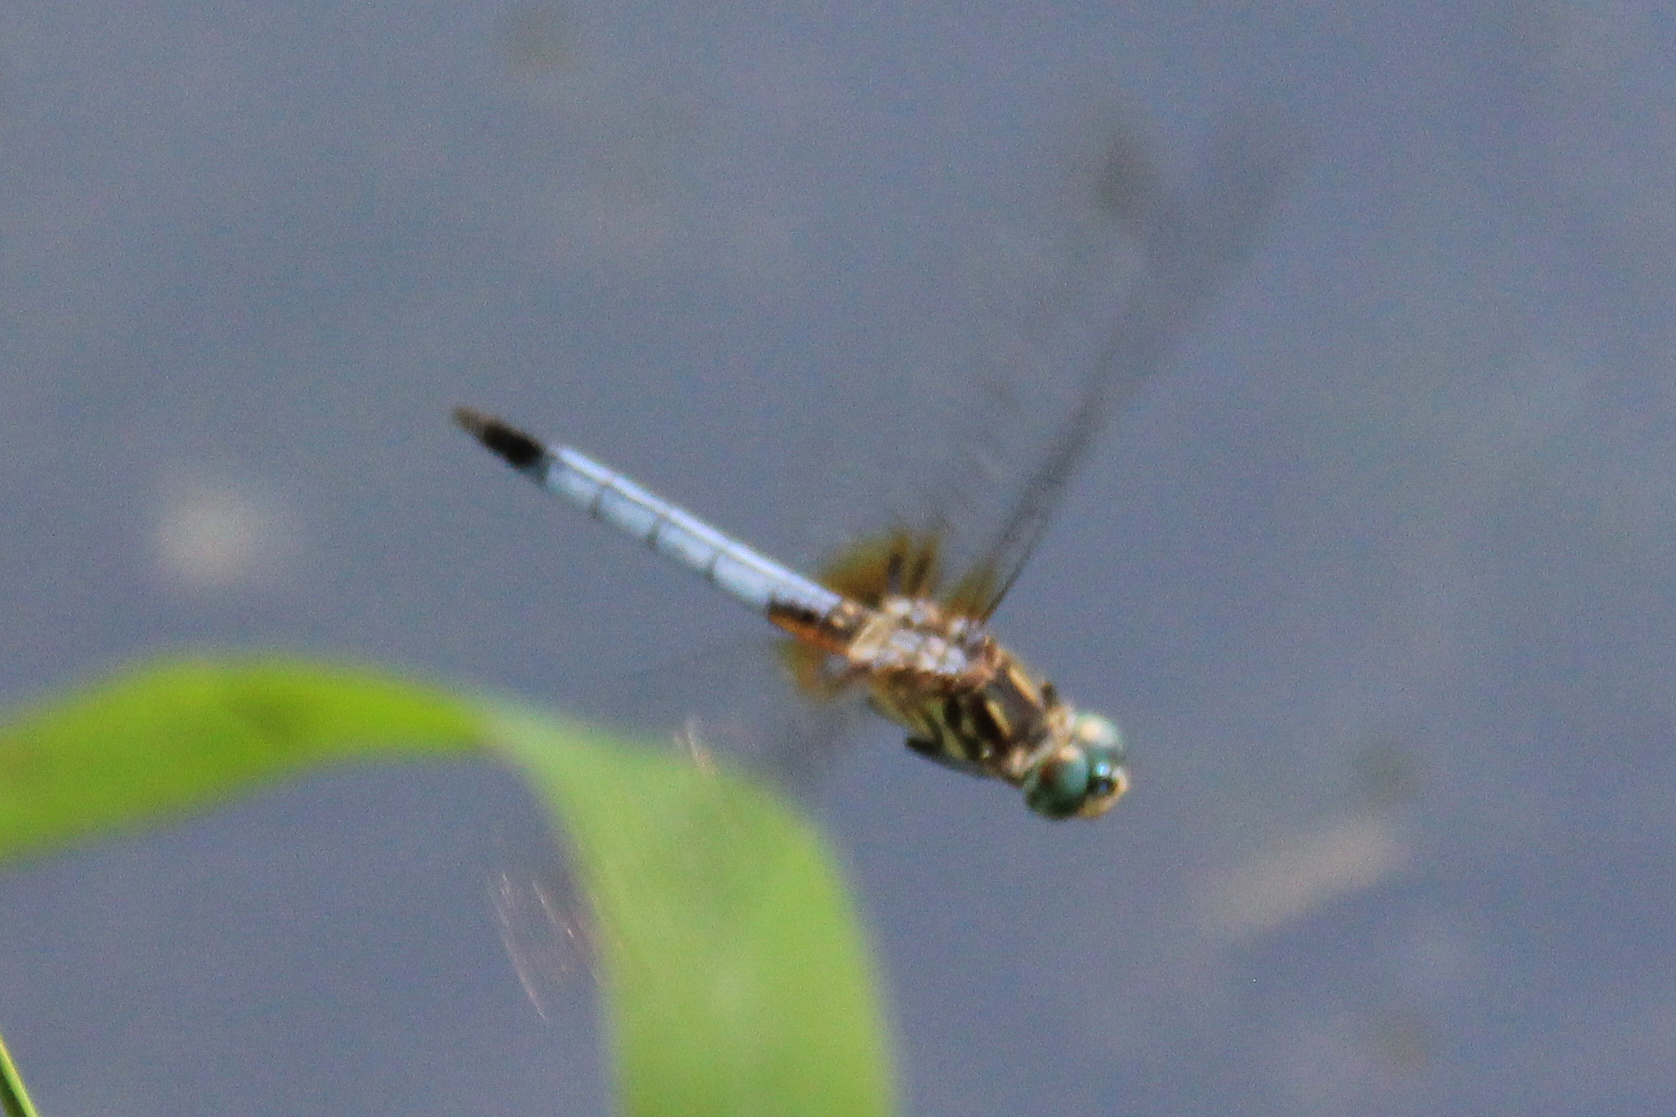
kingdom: Animalia
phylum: Arthropoda
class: Insecta
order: Odonata
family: Libellulidae
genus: Pachydiplax
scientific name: Pachydiplax longipennis
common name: Blue dasher
